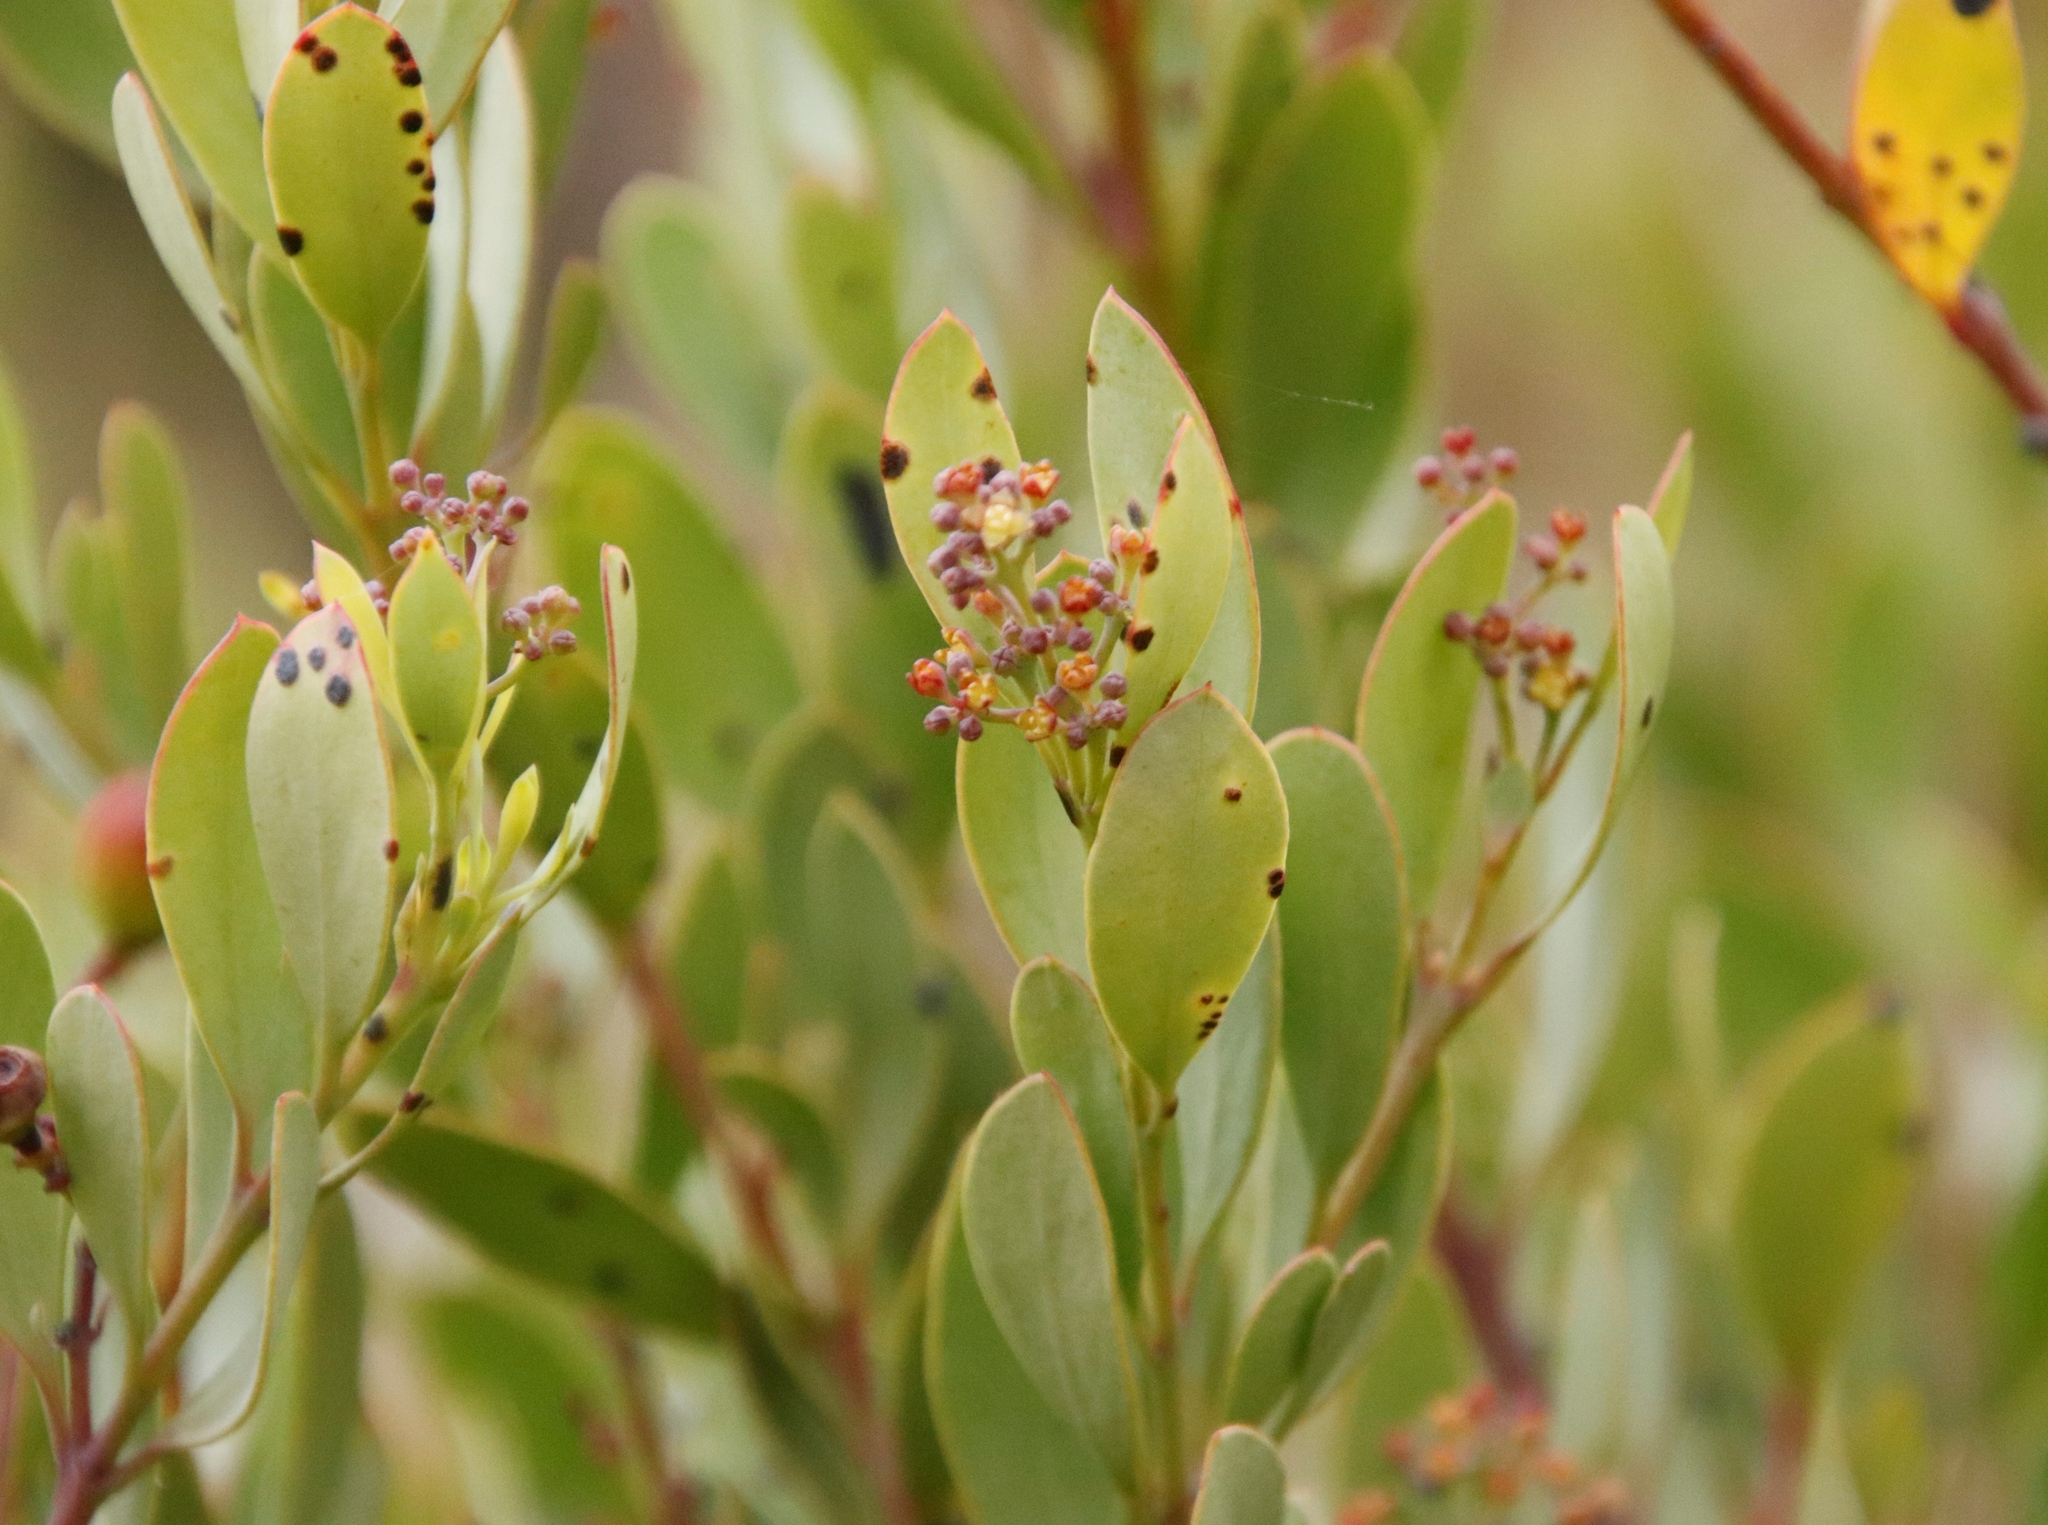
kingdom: Plantae
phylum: Tracheophyta
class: Magnoliopsida
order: Santalales
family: Santalaceae
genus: Osyris
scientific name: Osyris compressa
